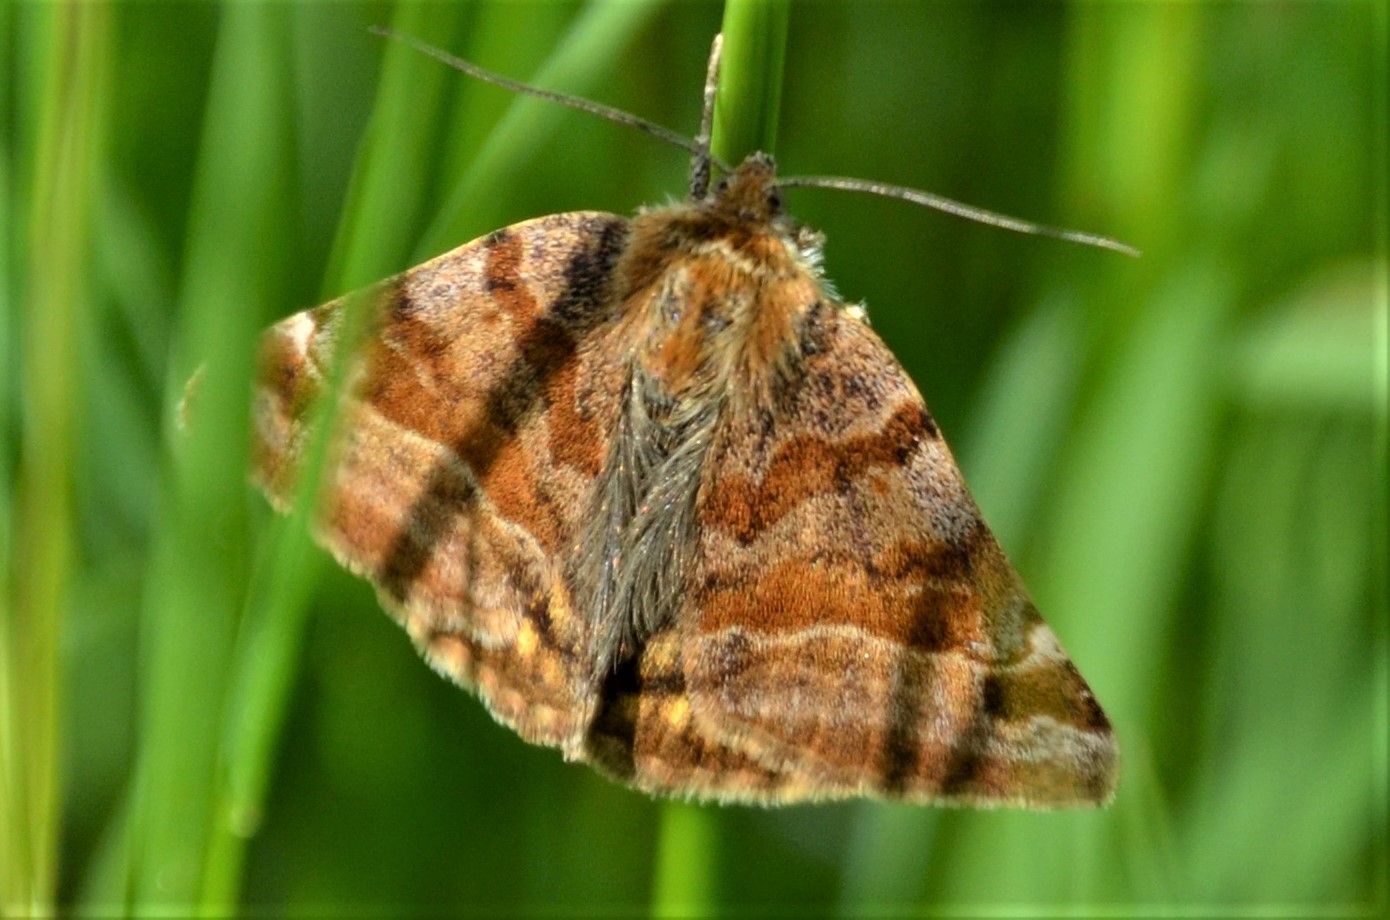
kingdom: Animalia
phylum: Arthropoda
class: Insecta
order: Lepidoptera
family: Erebidae
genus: Euclidia
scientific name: Euclidia glyphica
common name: Burnet companion
